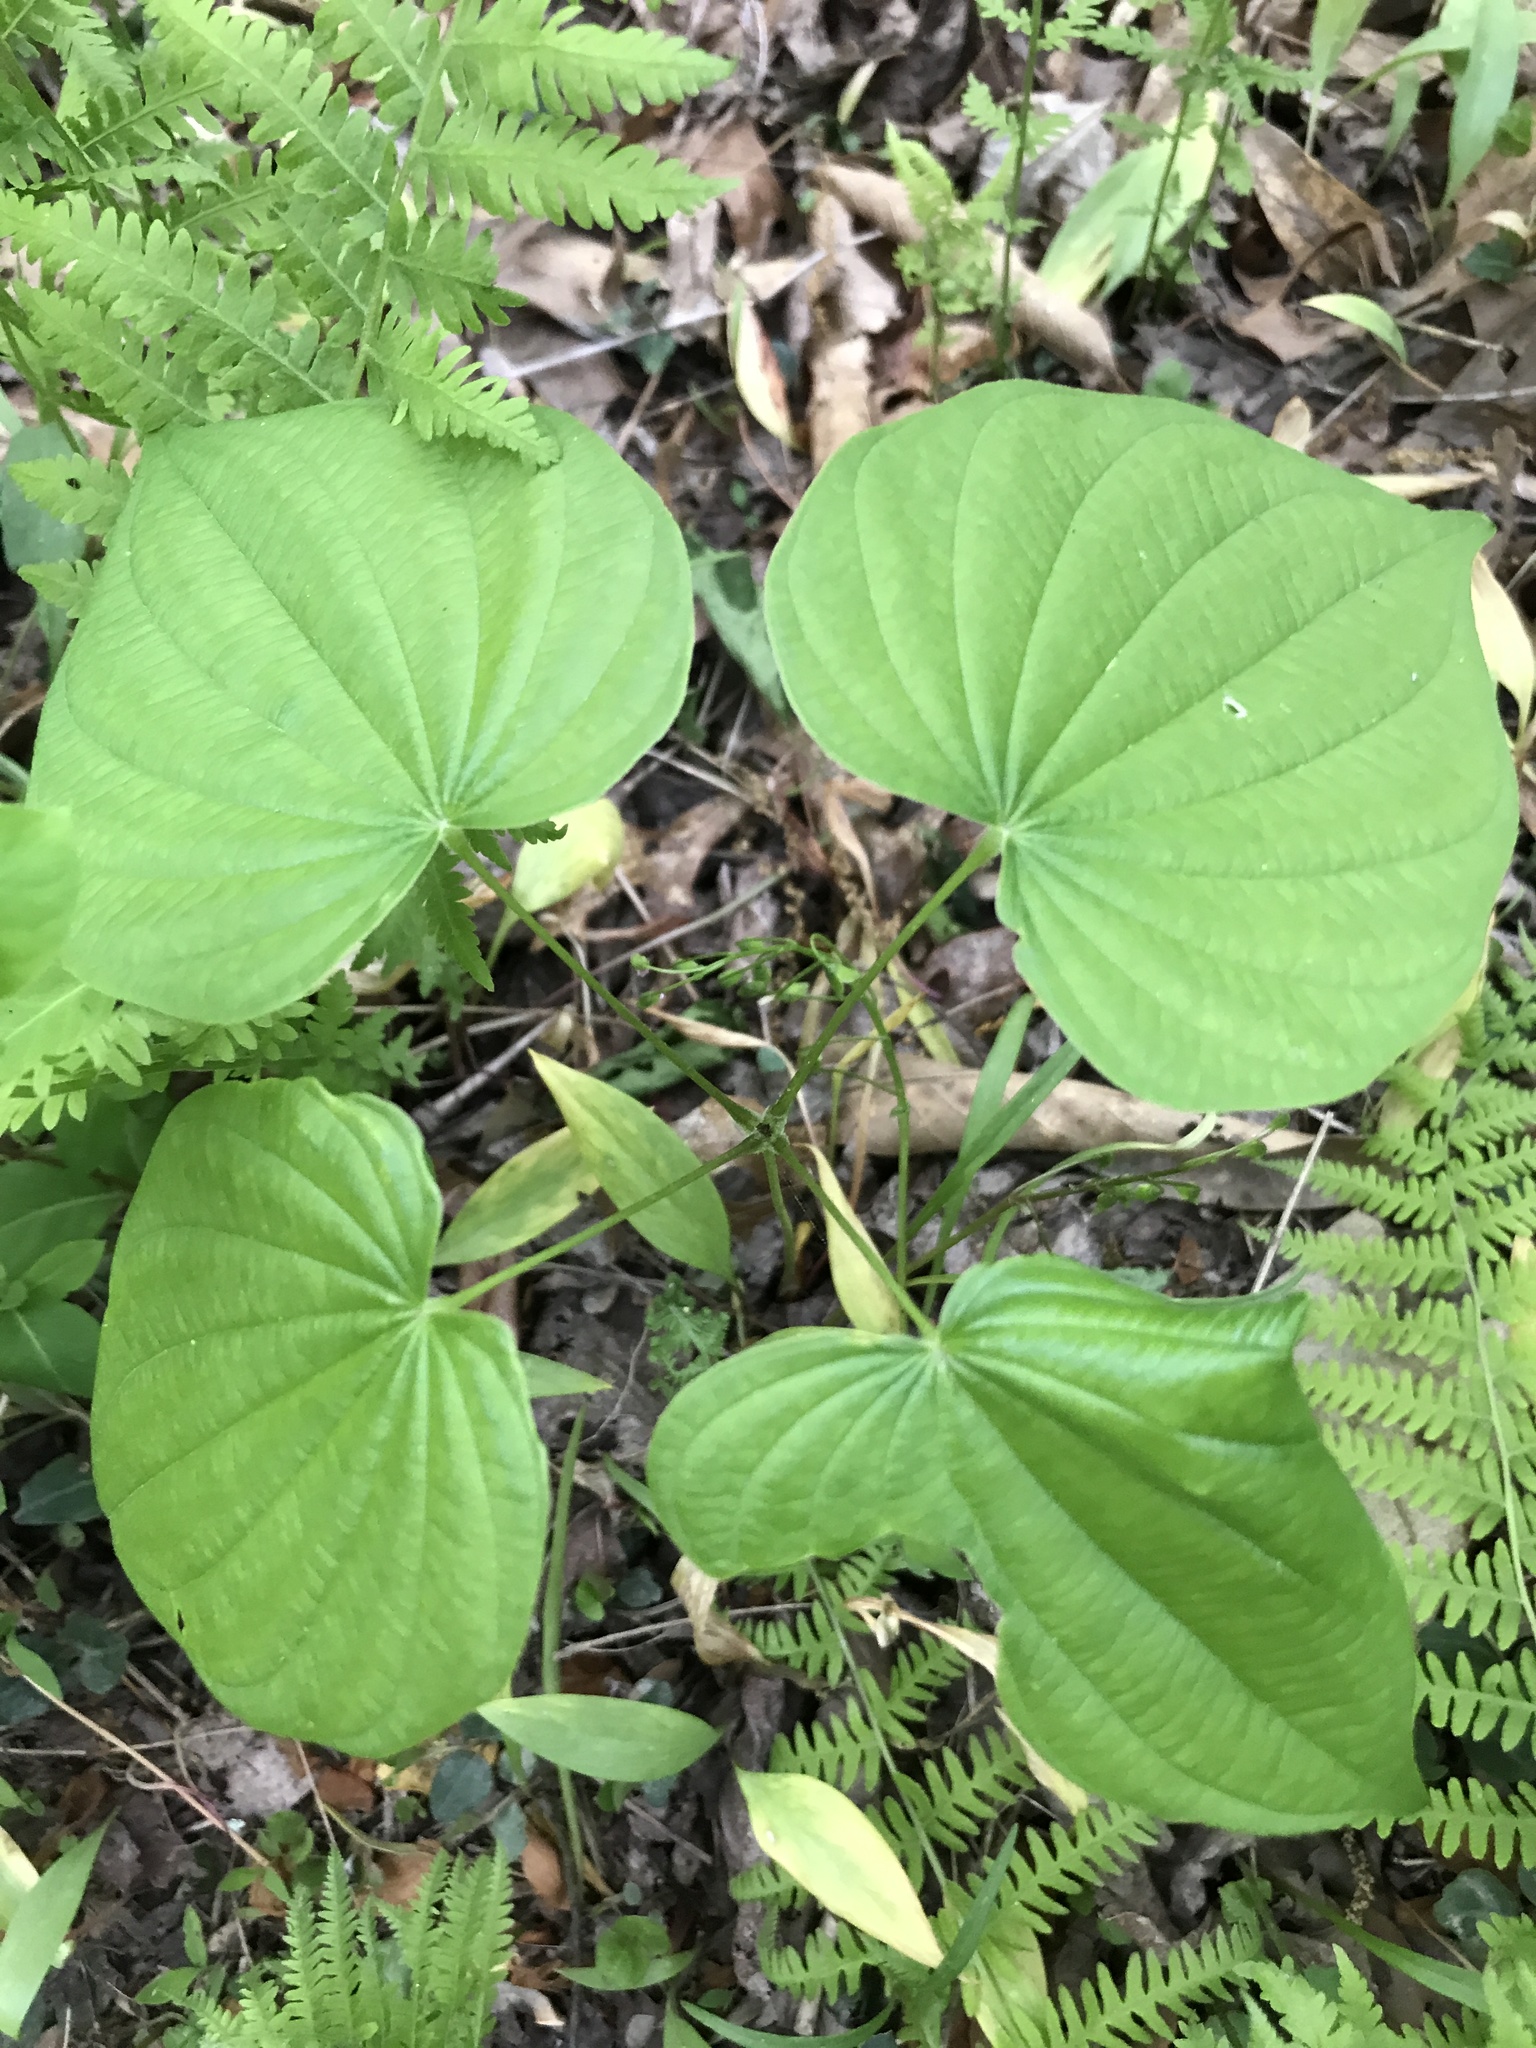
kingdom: Plantae
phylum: Tracheophyta
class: Liliopsida
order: Dioscoreales
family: Dioscoreaceae
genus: Dioscorea
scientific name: Dioscorea villosa
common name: Wild yam
